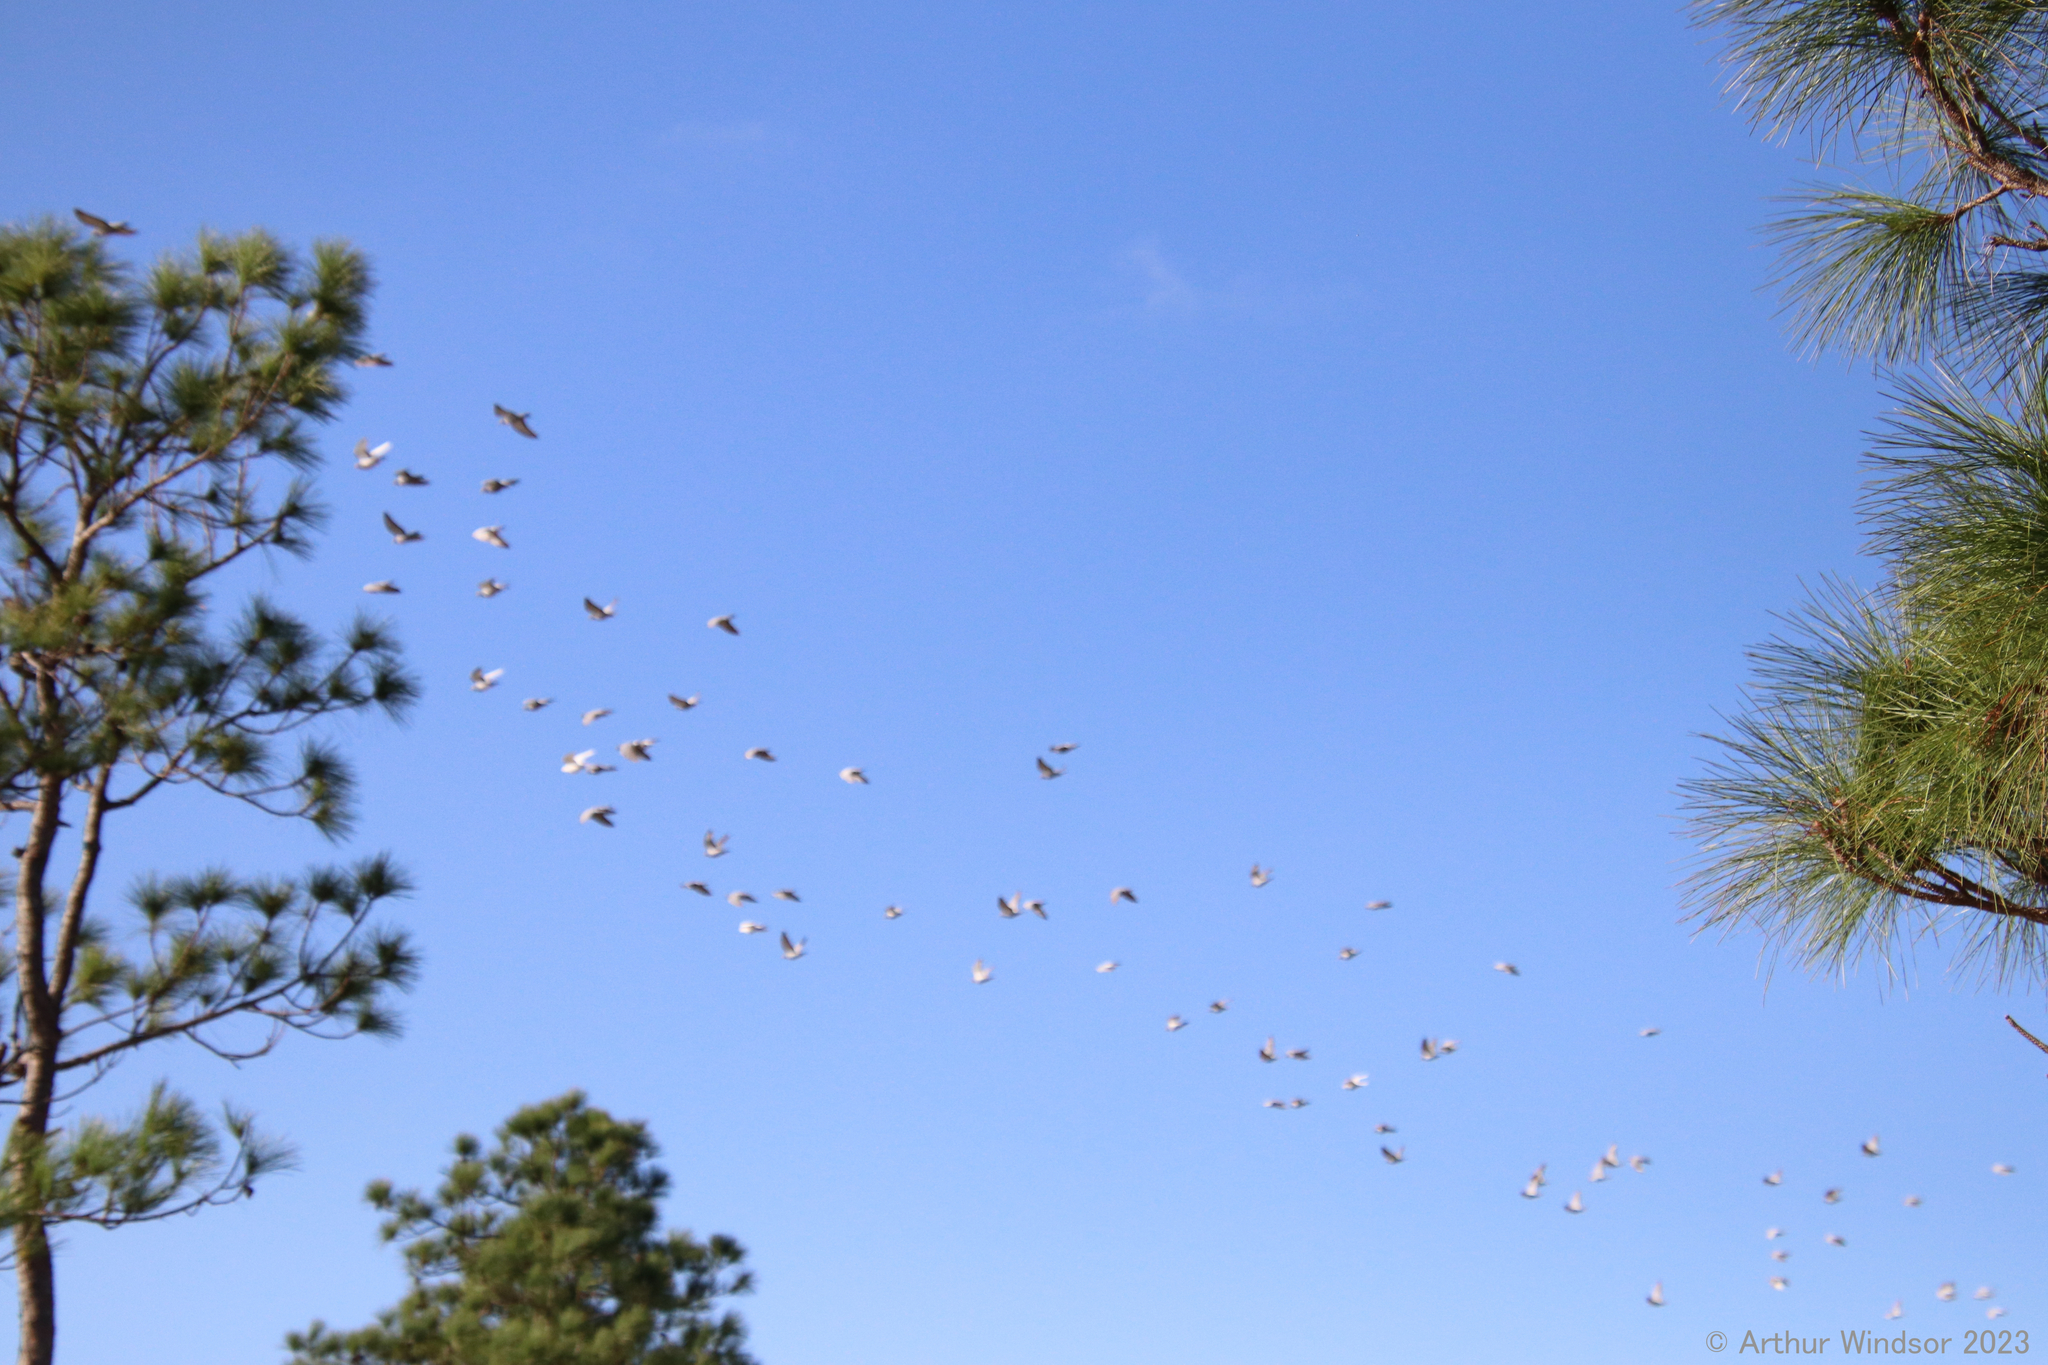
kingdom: Animalia
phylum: Chordata
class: Aves
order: Columbiformes
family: Columbidae
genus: Columba
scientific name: Columba livia
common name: Rock pigeon
